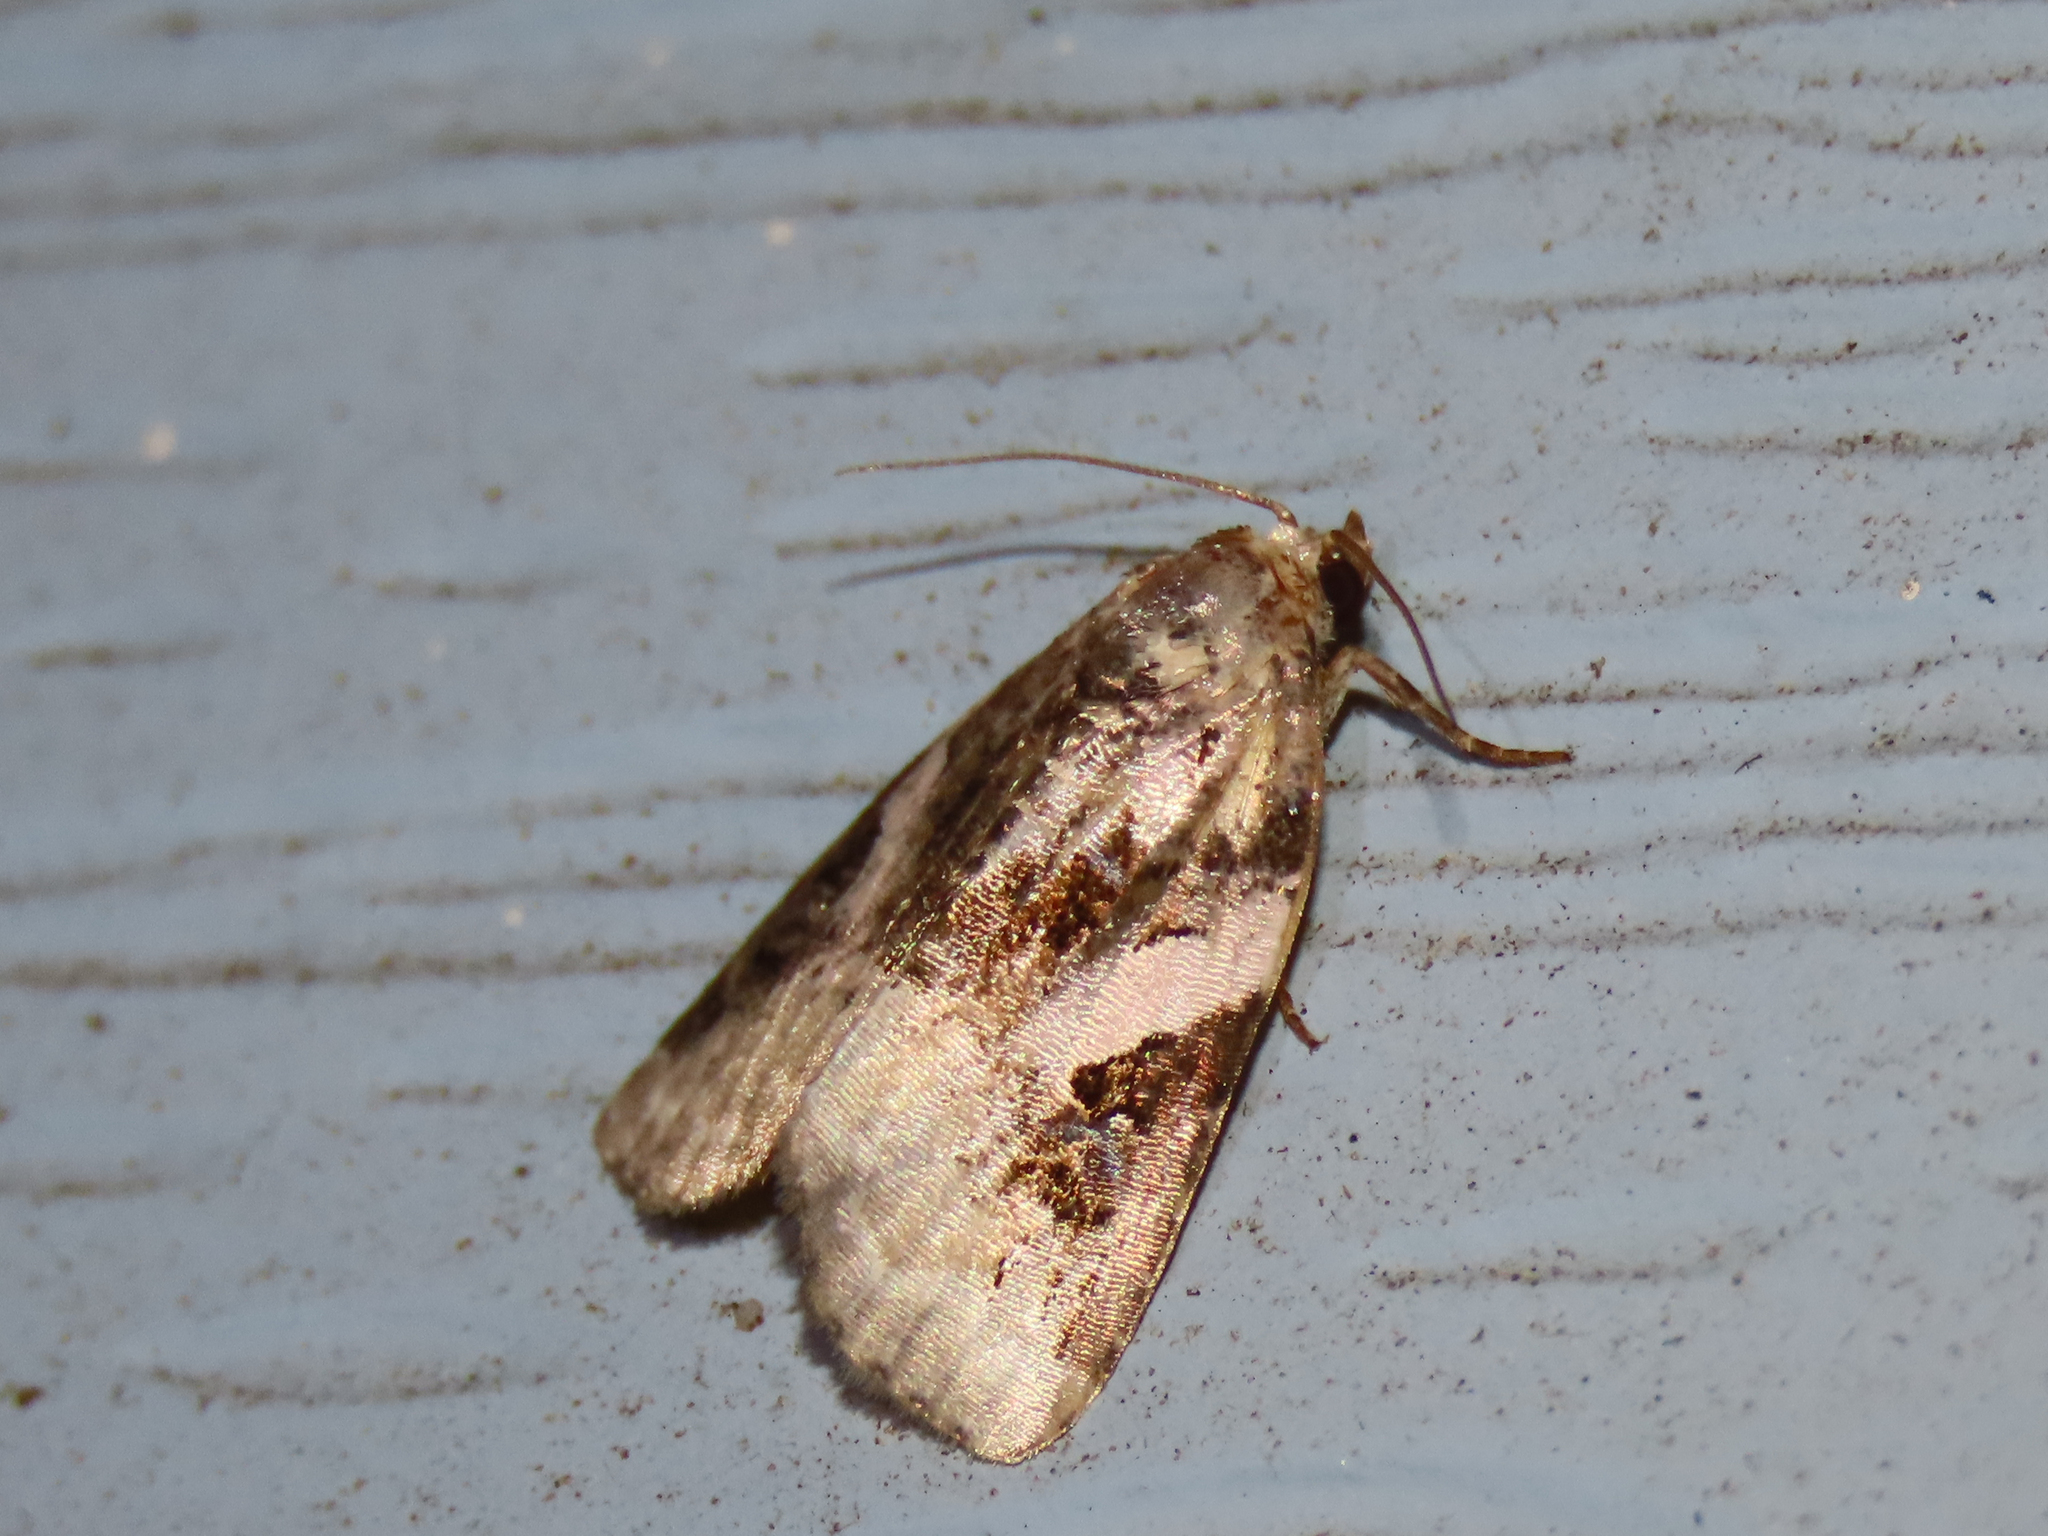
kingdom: Animalia
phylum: Arthropoda
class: Insecta
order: Lepidoptera
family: Noctuidae
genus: Pseudeustrotia
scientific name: Pseudeustrotia carneola
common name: Pink-barred lithacodia moth
